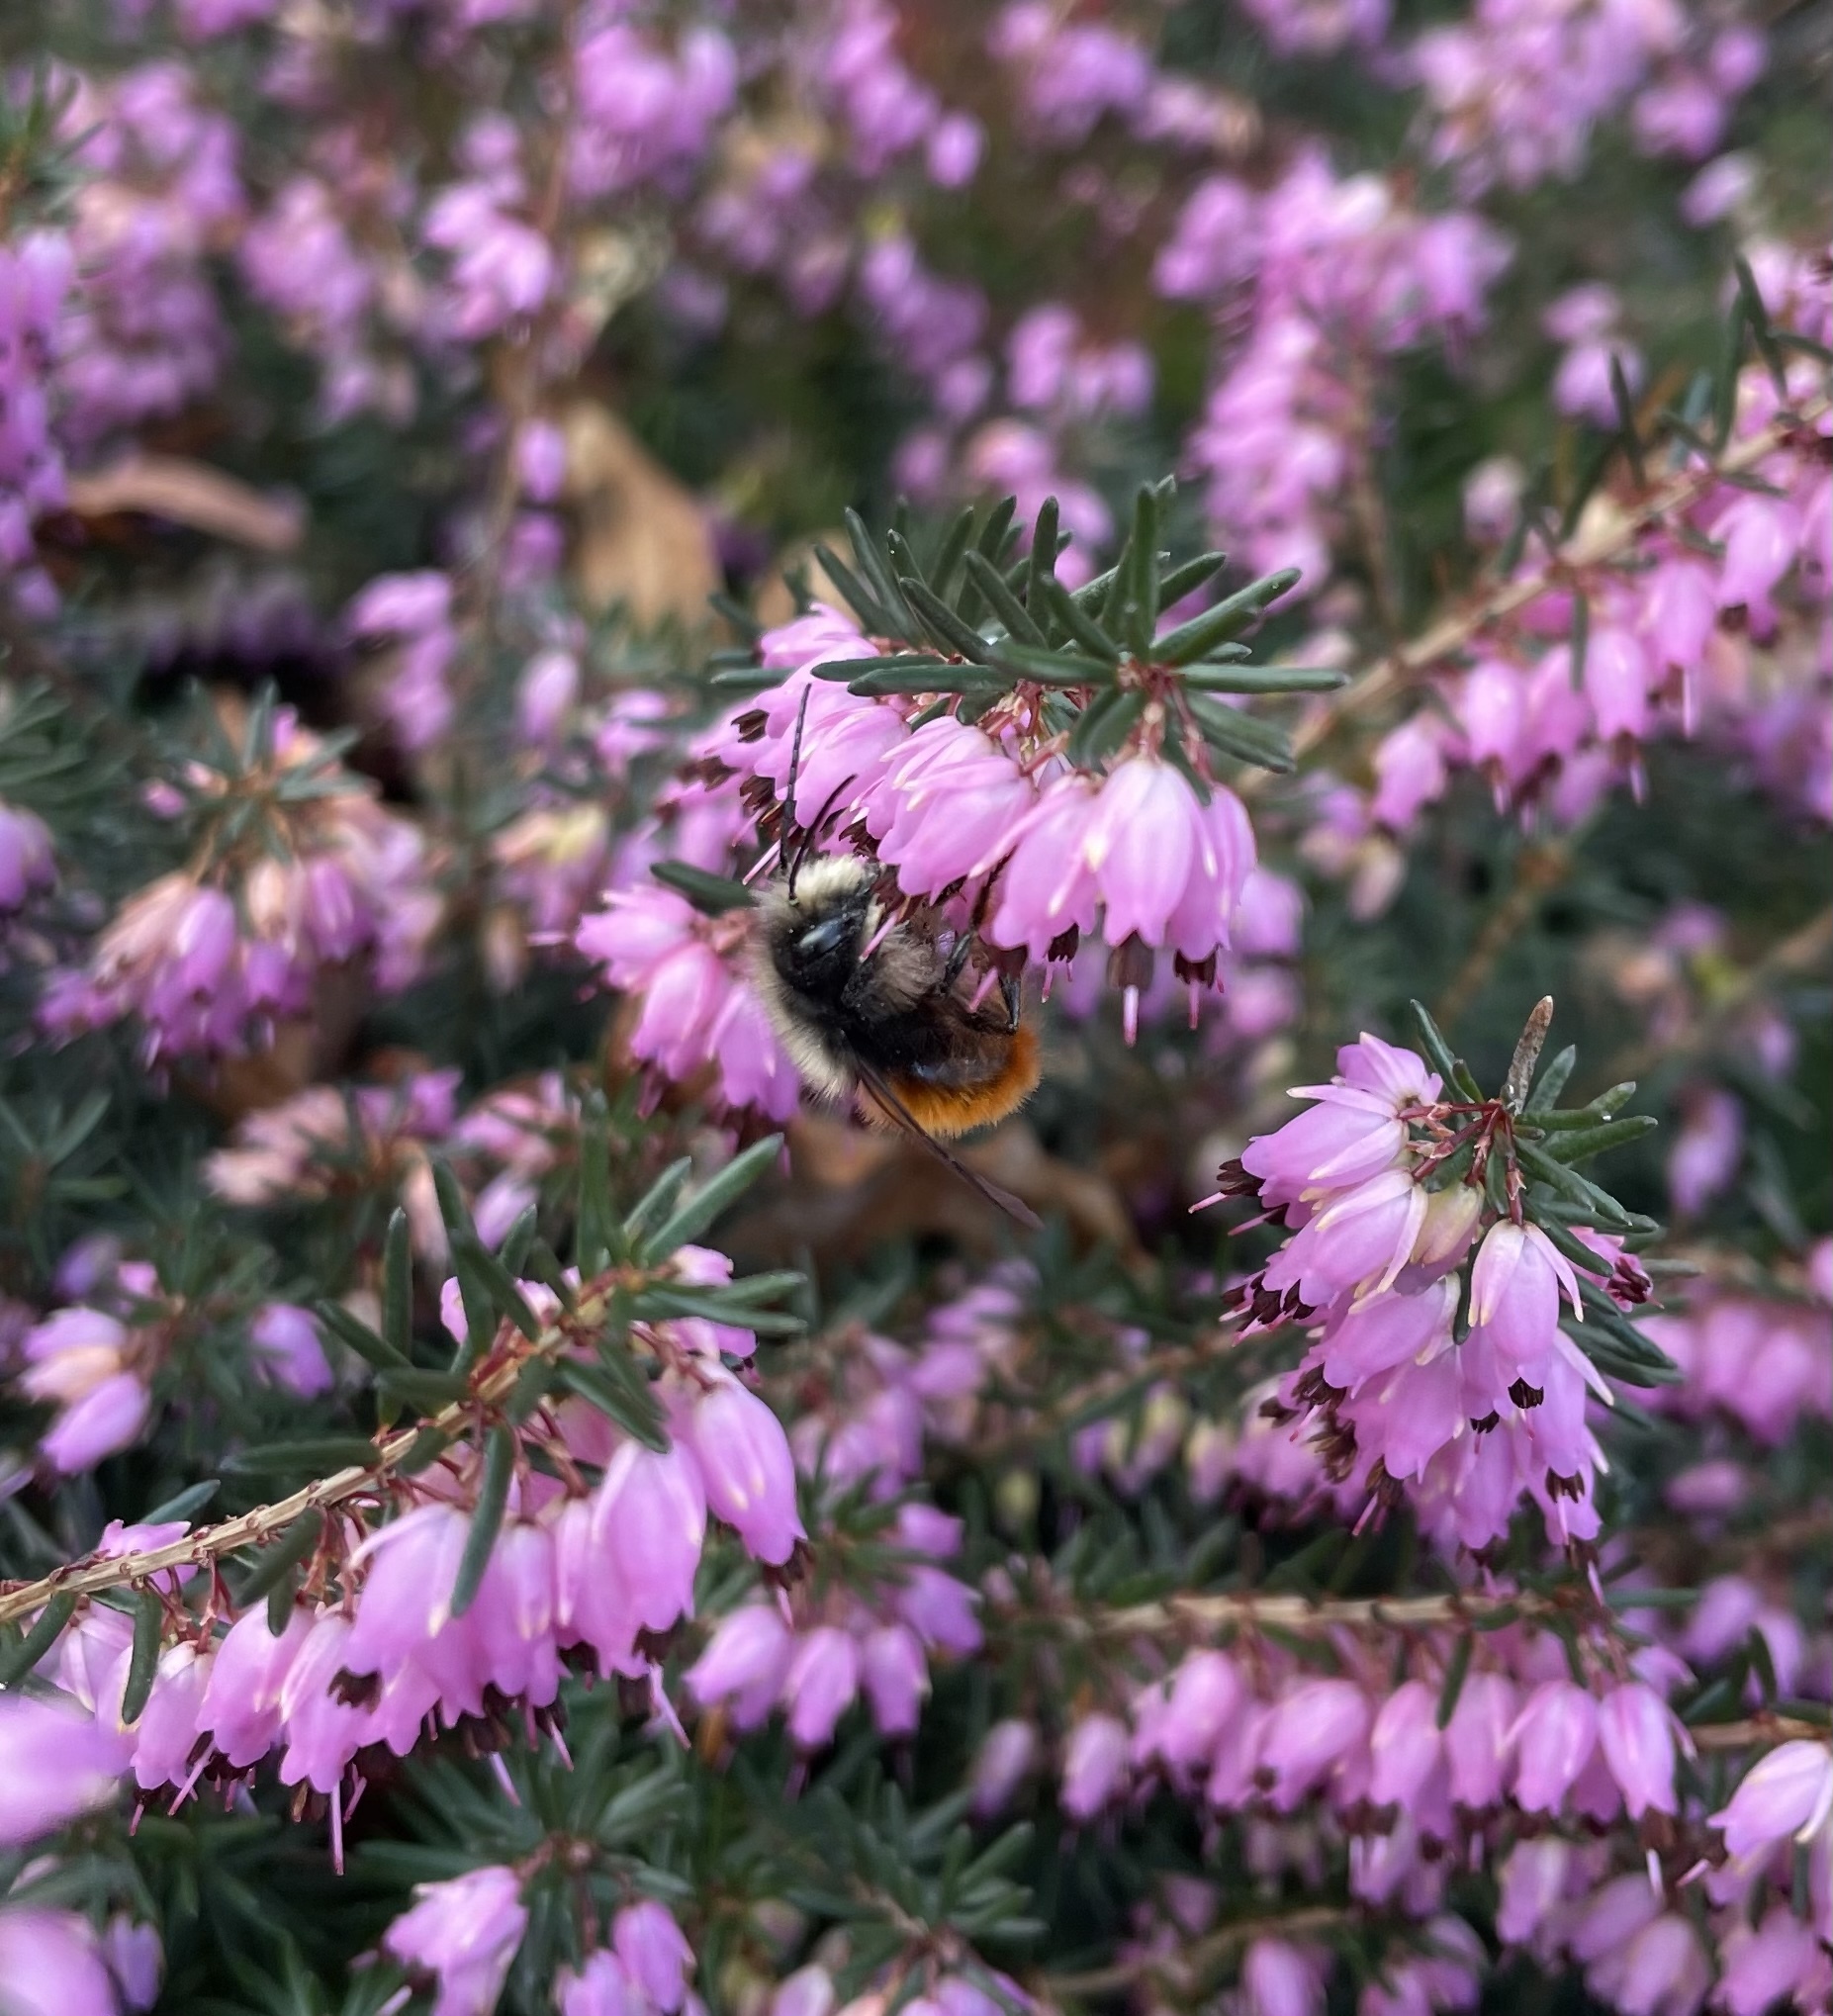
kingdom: Animalia
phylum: Arthropoda
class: Insecta
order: Hymenoptera
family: Megachilidae
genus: Osmia
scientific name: Osmia cornuta
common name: Mason bee
